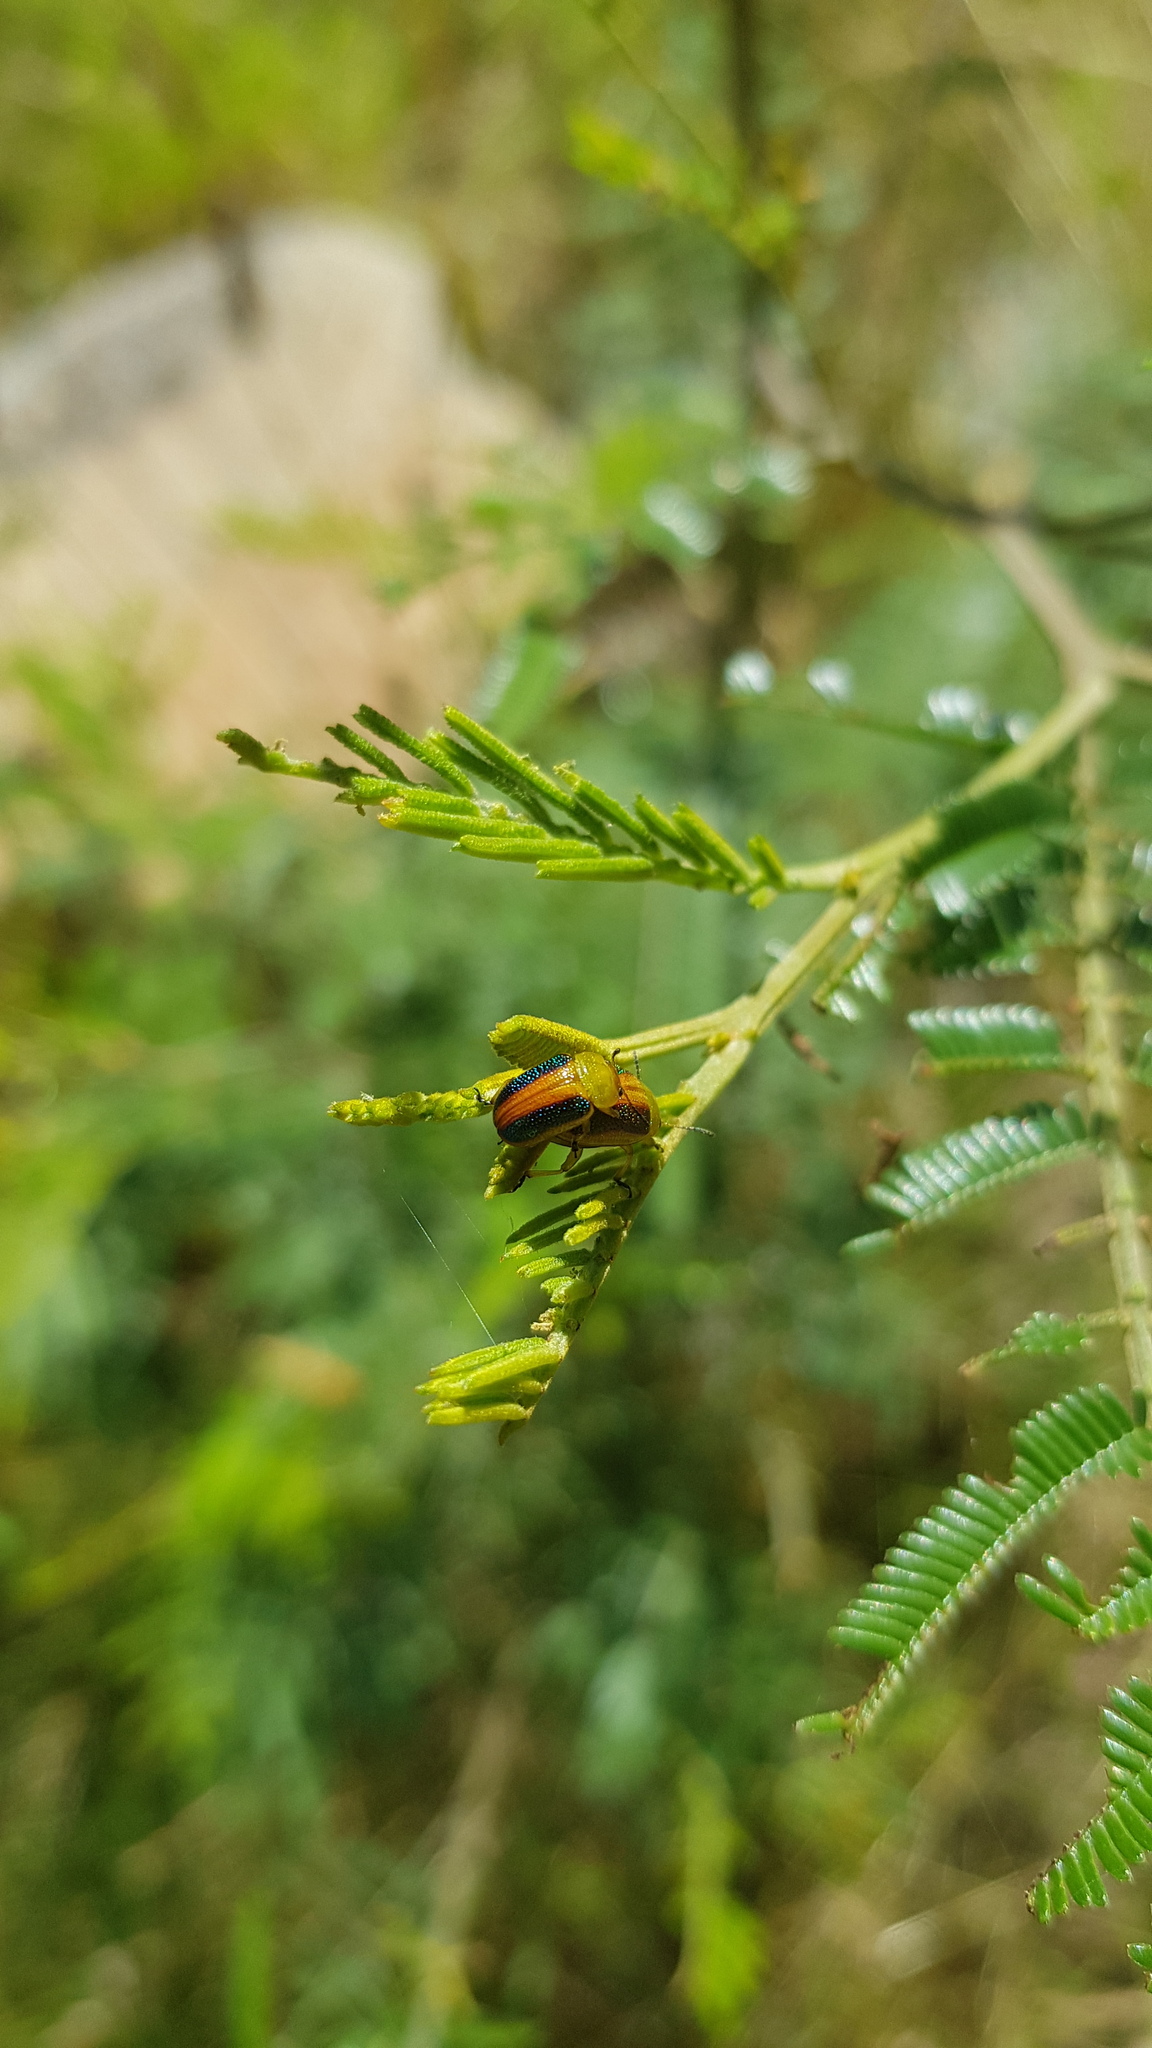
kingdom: Animalia
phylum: Arthropoda
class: Insecta
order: Coleoptera
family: Chrysomelidae
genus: Calomela
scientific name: Calomela
